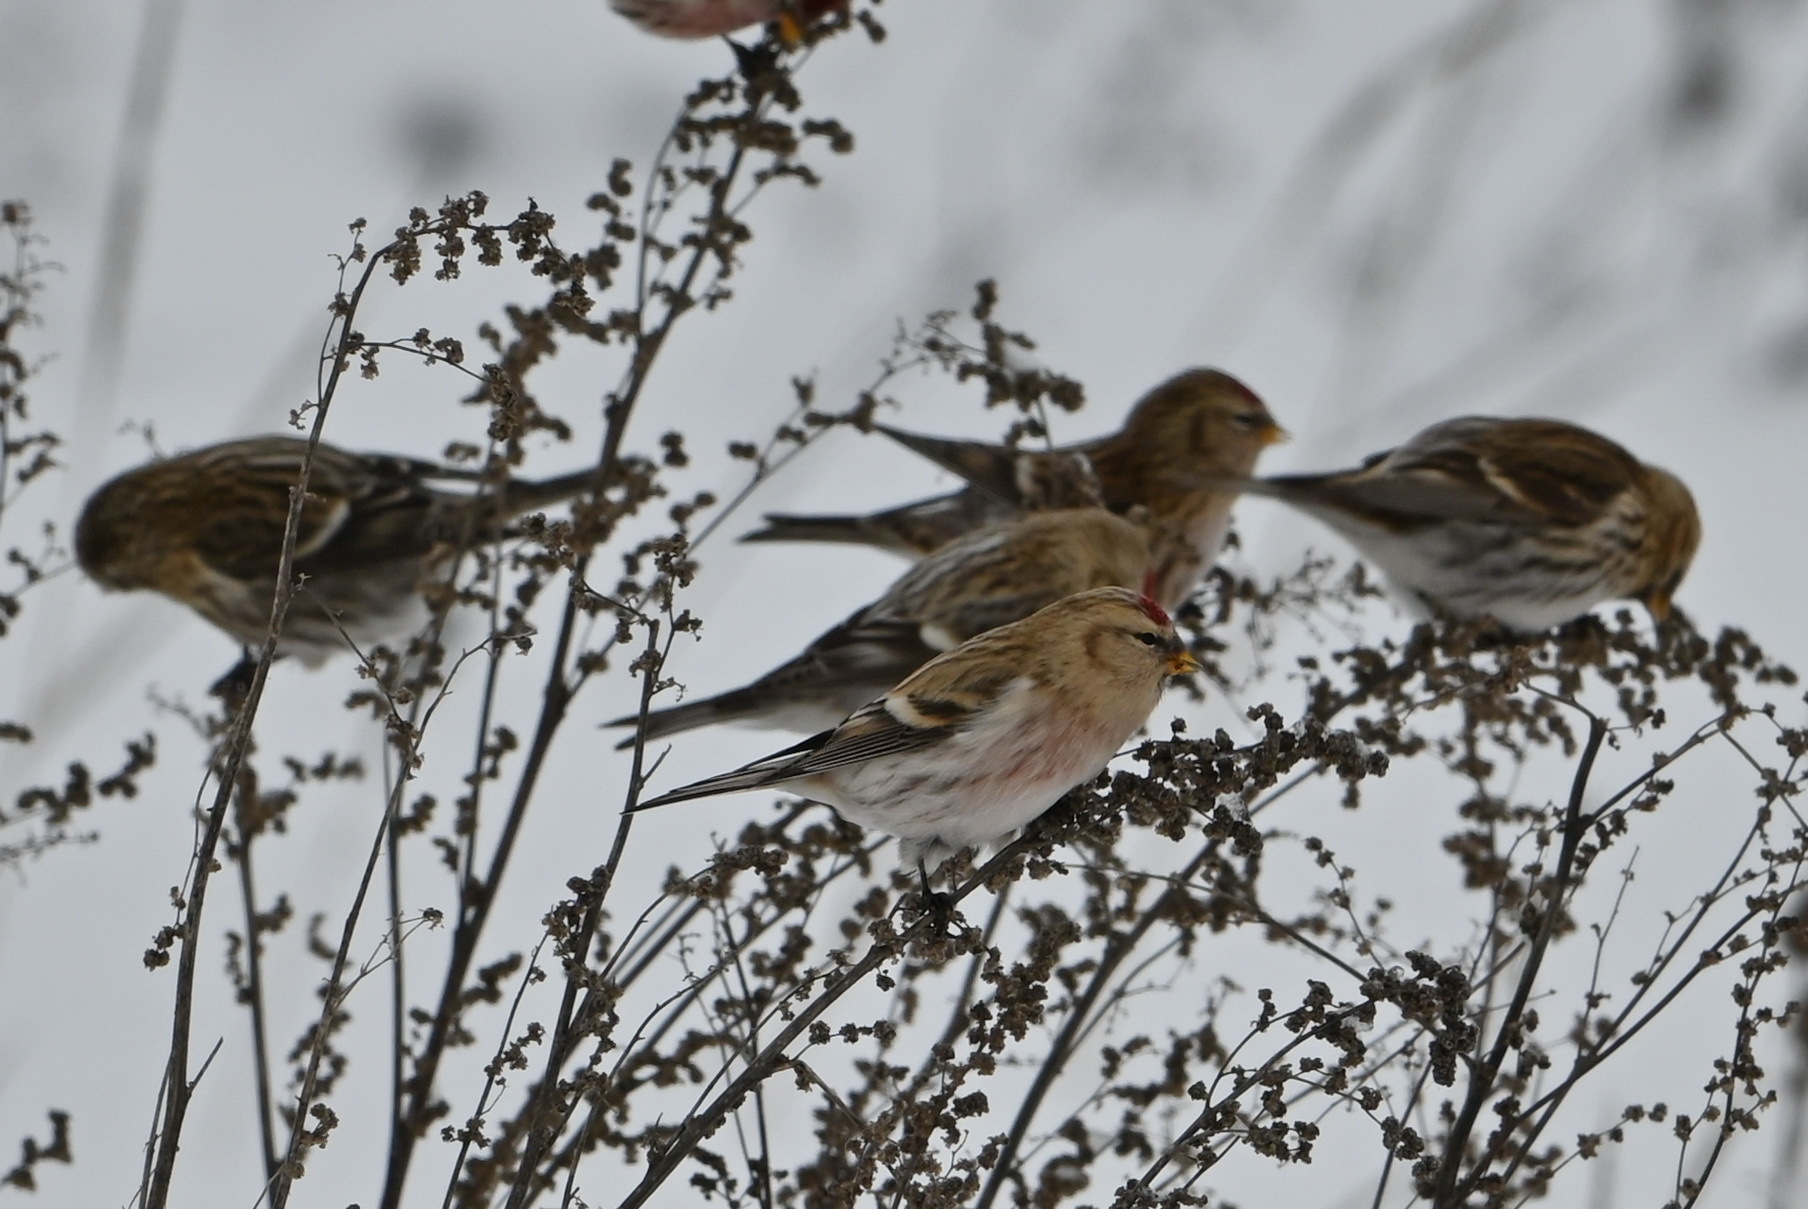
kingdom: Animalia
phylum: Chordata
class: Aves
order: Passeriformes
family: Fringillidae
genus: Acanthis
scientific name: Acanthis flammea
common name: Common redpoll
